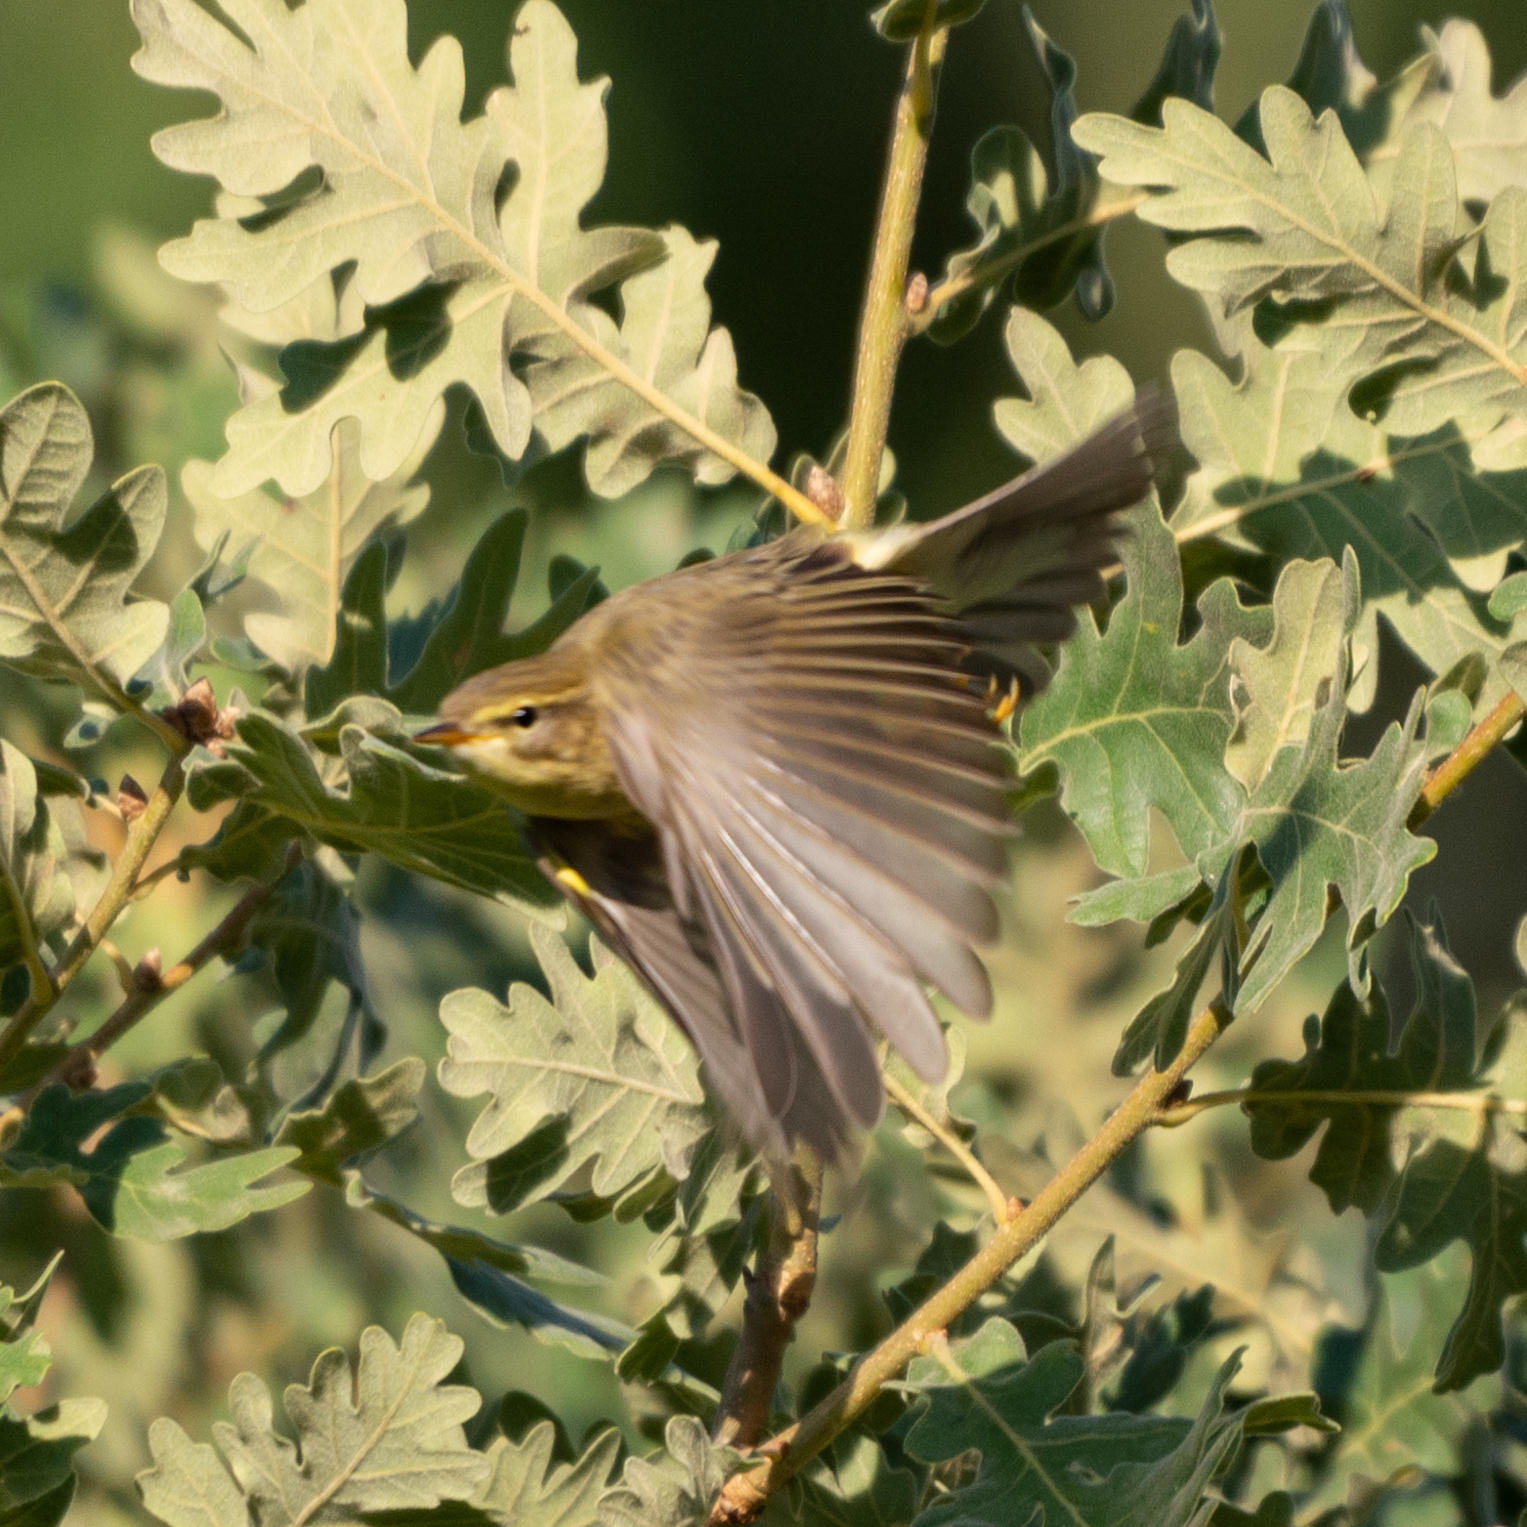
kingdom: Animalia
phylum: Chordata
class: Aves
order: Passeriformes
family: Phylloscopidae
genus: Phylloscopus
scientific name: Phylloscopus trochilus
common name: Willow warbler
